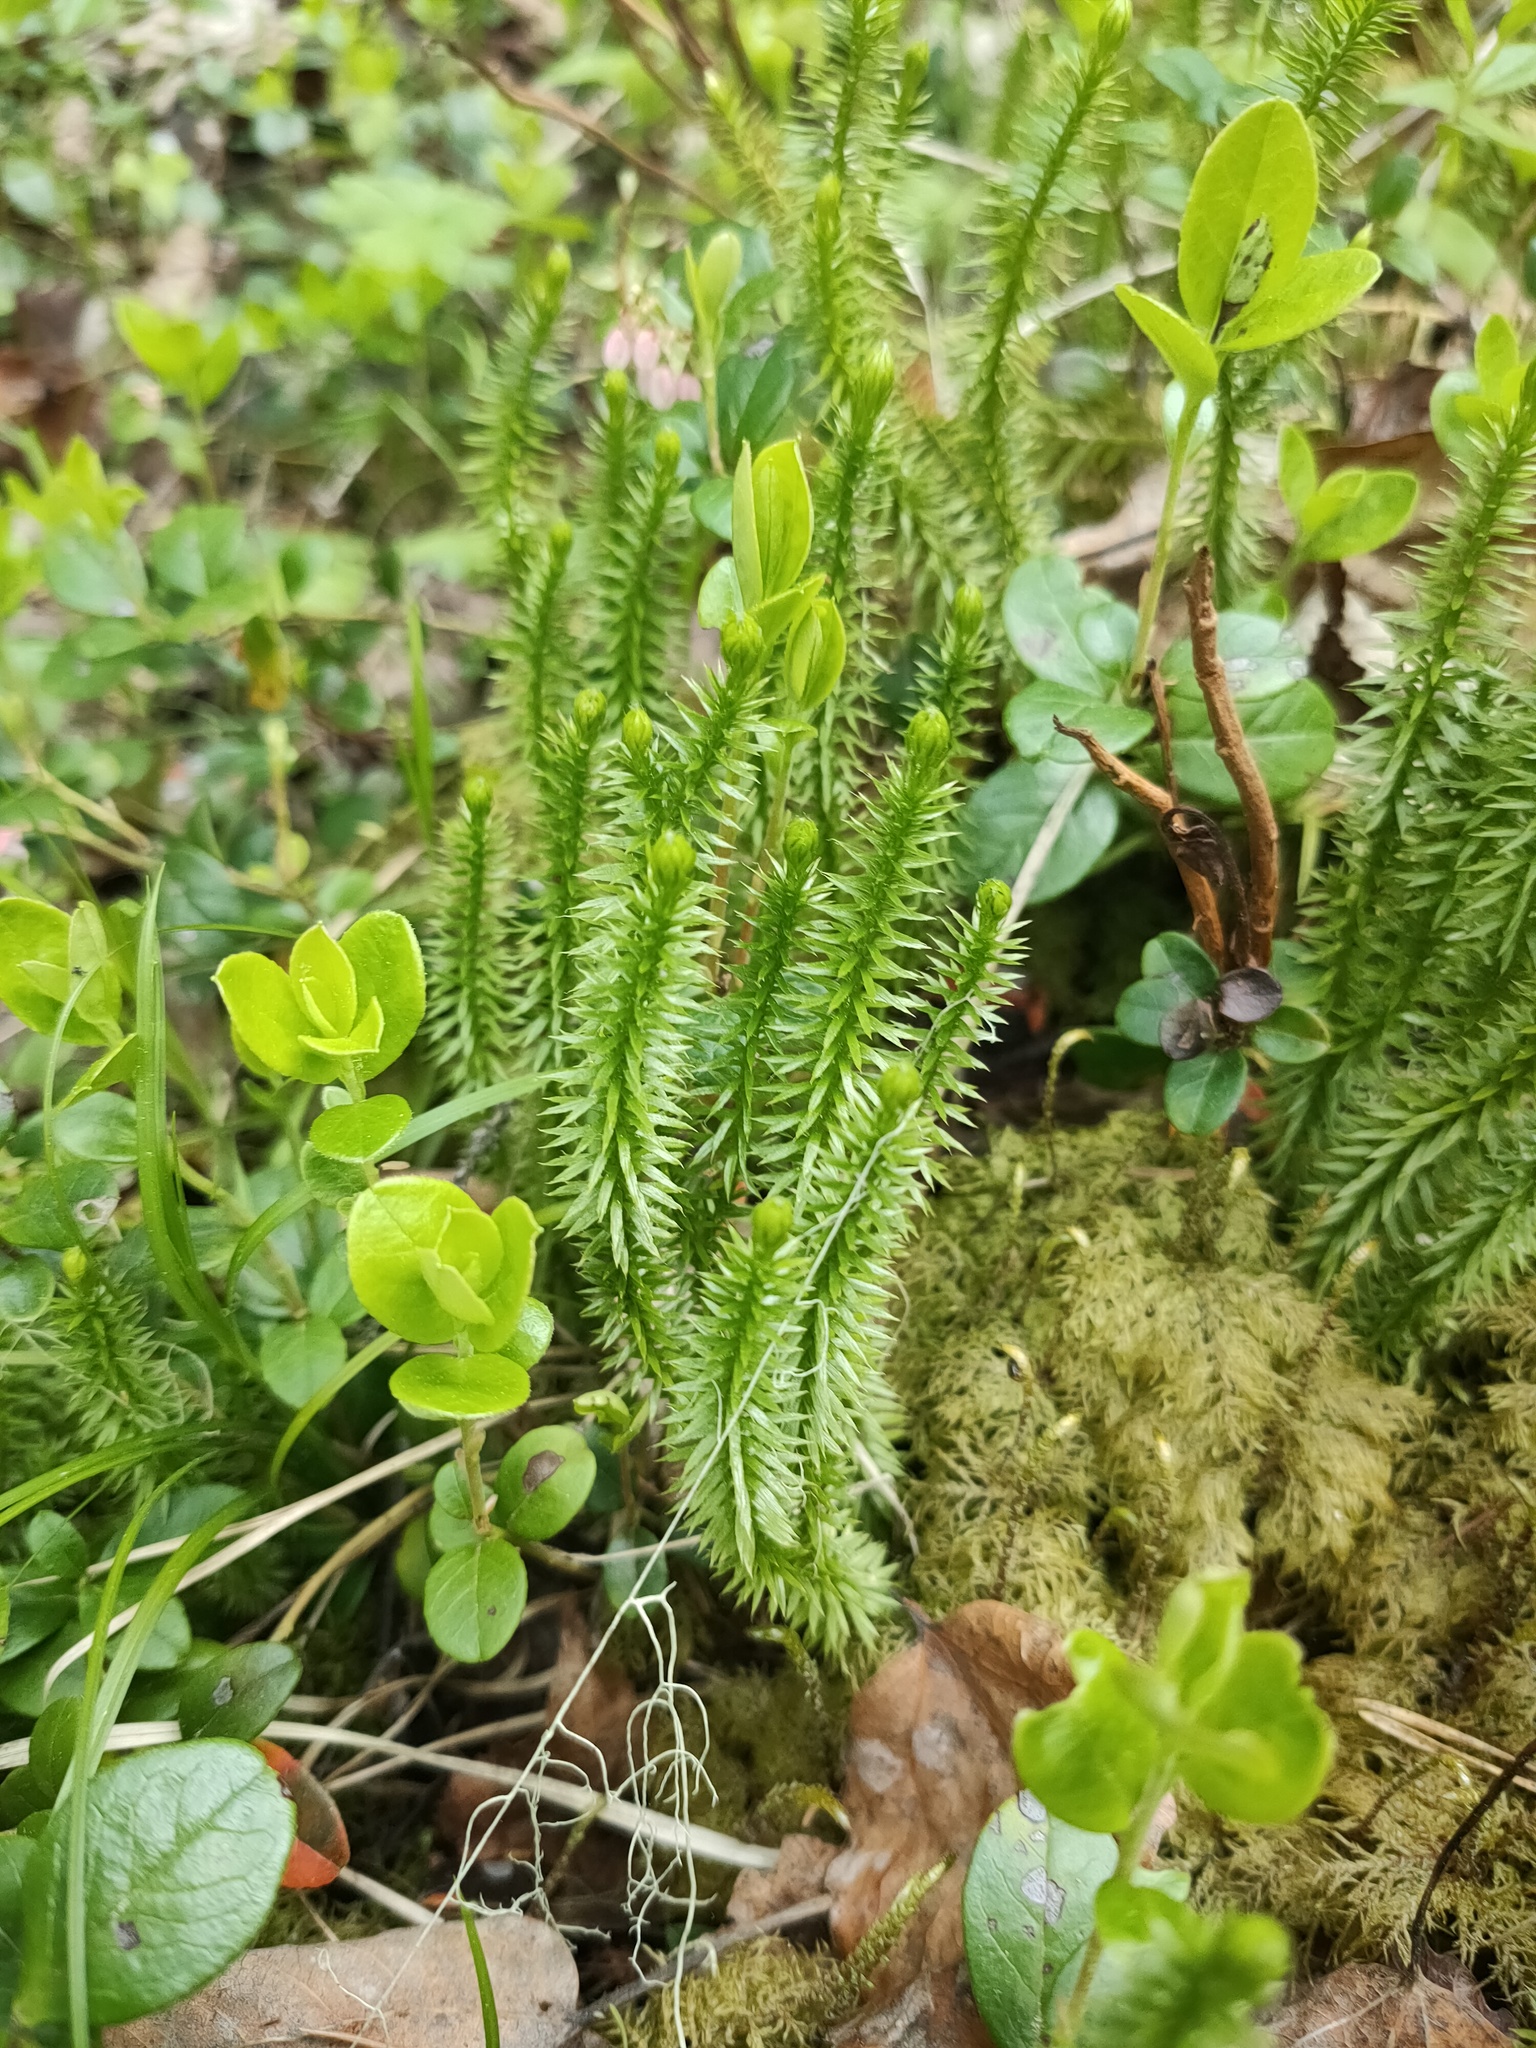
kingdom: Plantae
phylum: Tracheophyta
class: Lycopodiopsida
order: Lycopodiales
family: Lycopodiaceae
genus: Huperzia
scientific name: Huperzia selago
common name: Northern firmoss
